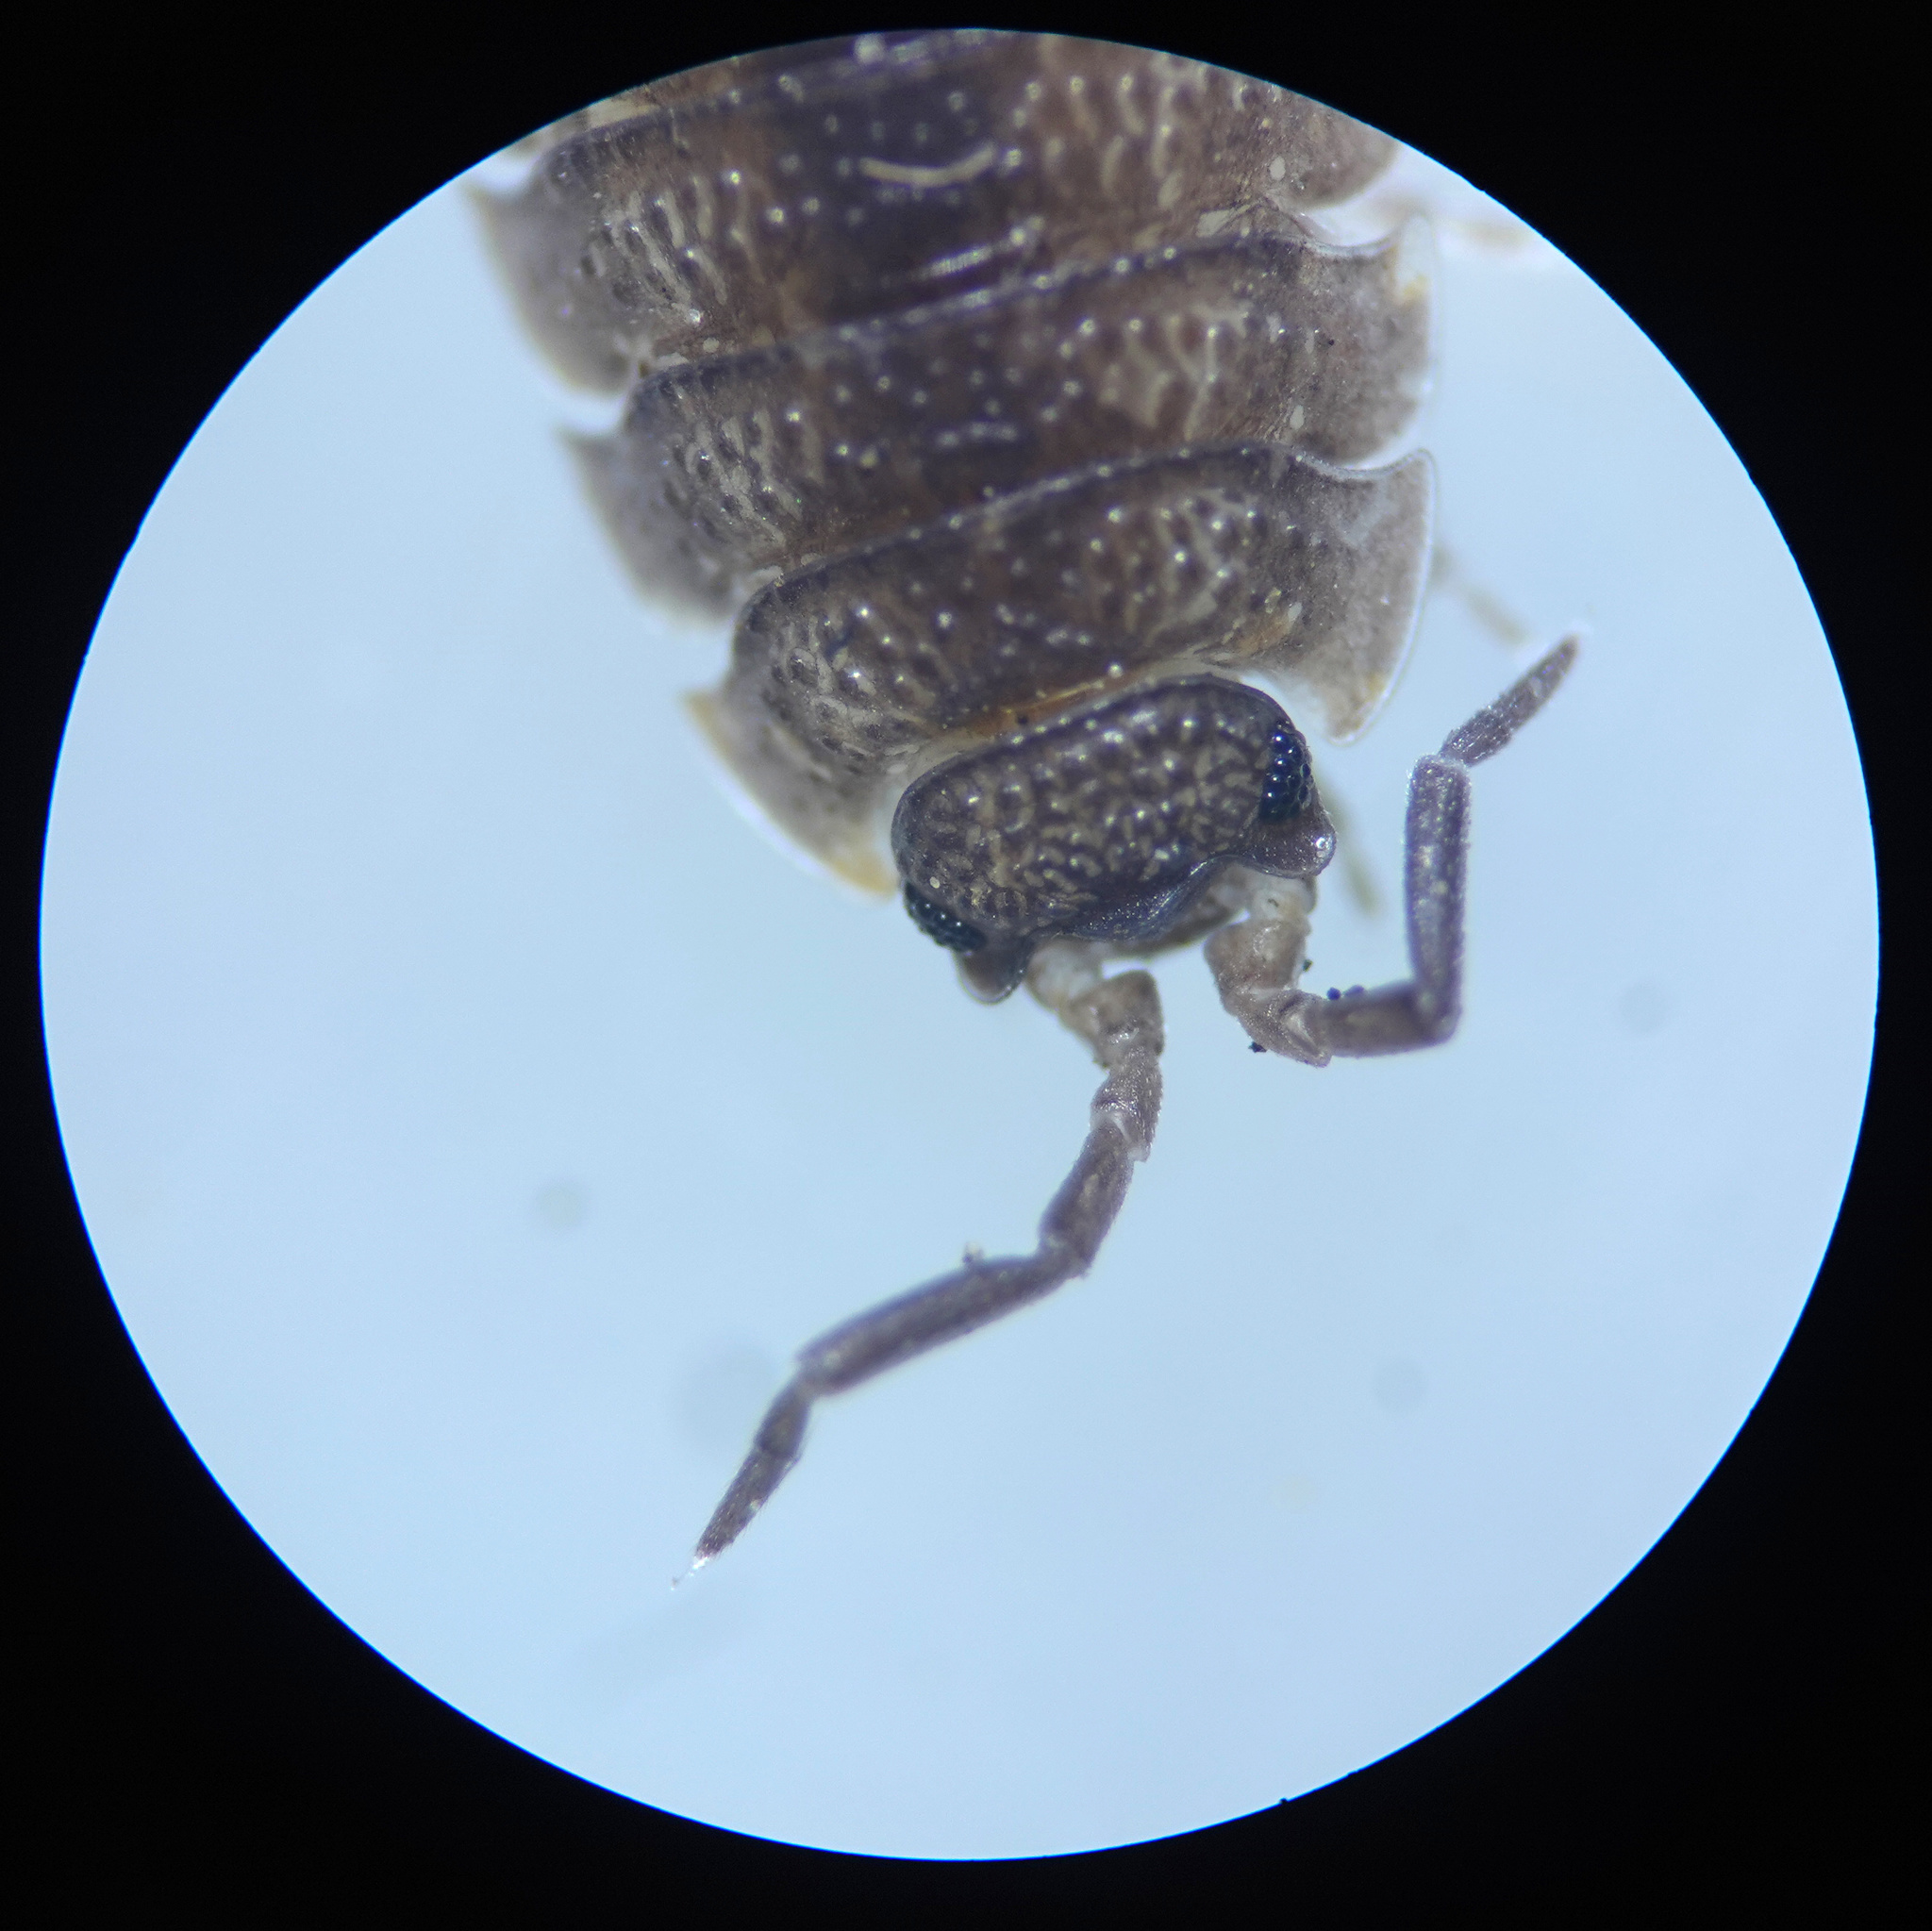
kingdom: Animalia
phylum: Arthropoda
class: Malacostraca
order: Isopoda
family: Porcellionidae
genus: Porcellio
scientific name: Porcellio scaber
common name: Common rough woodlouse
